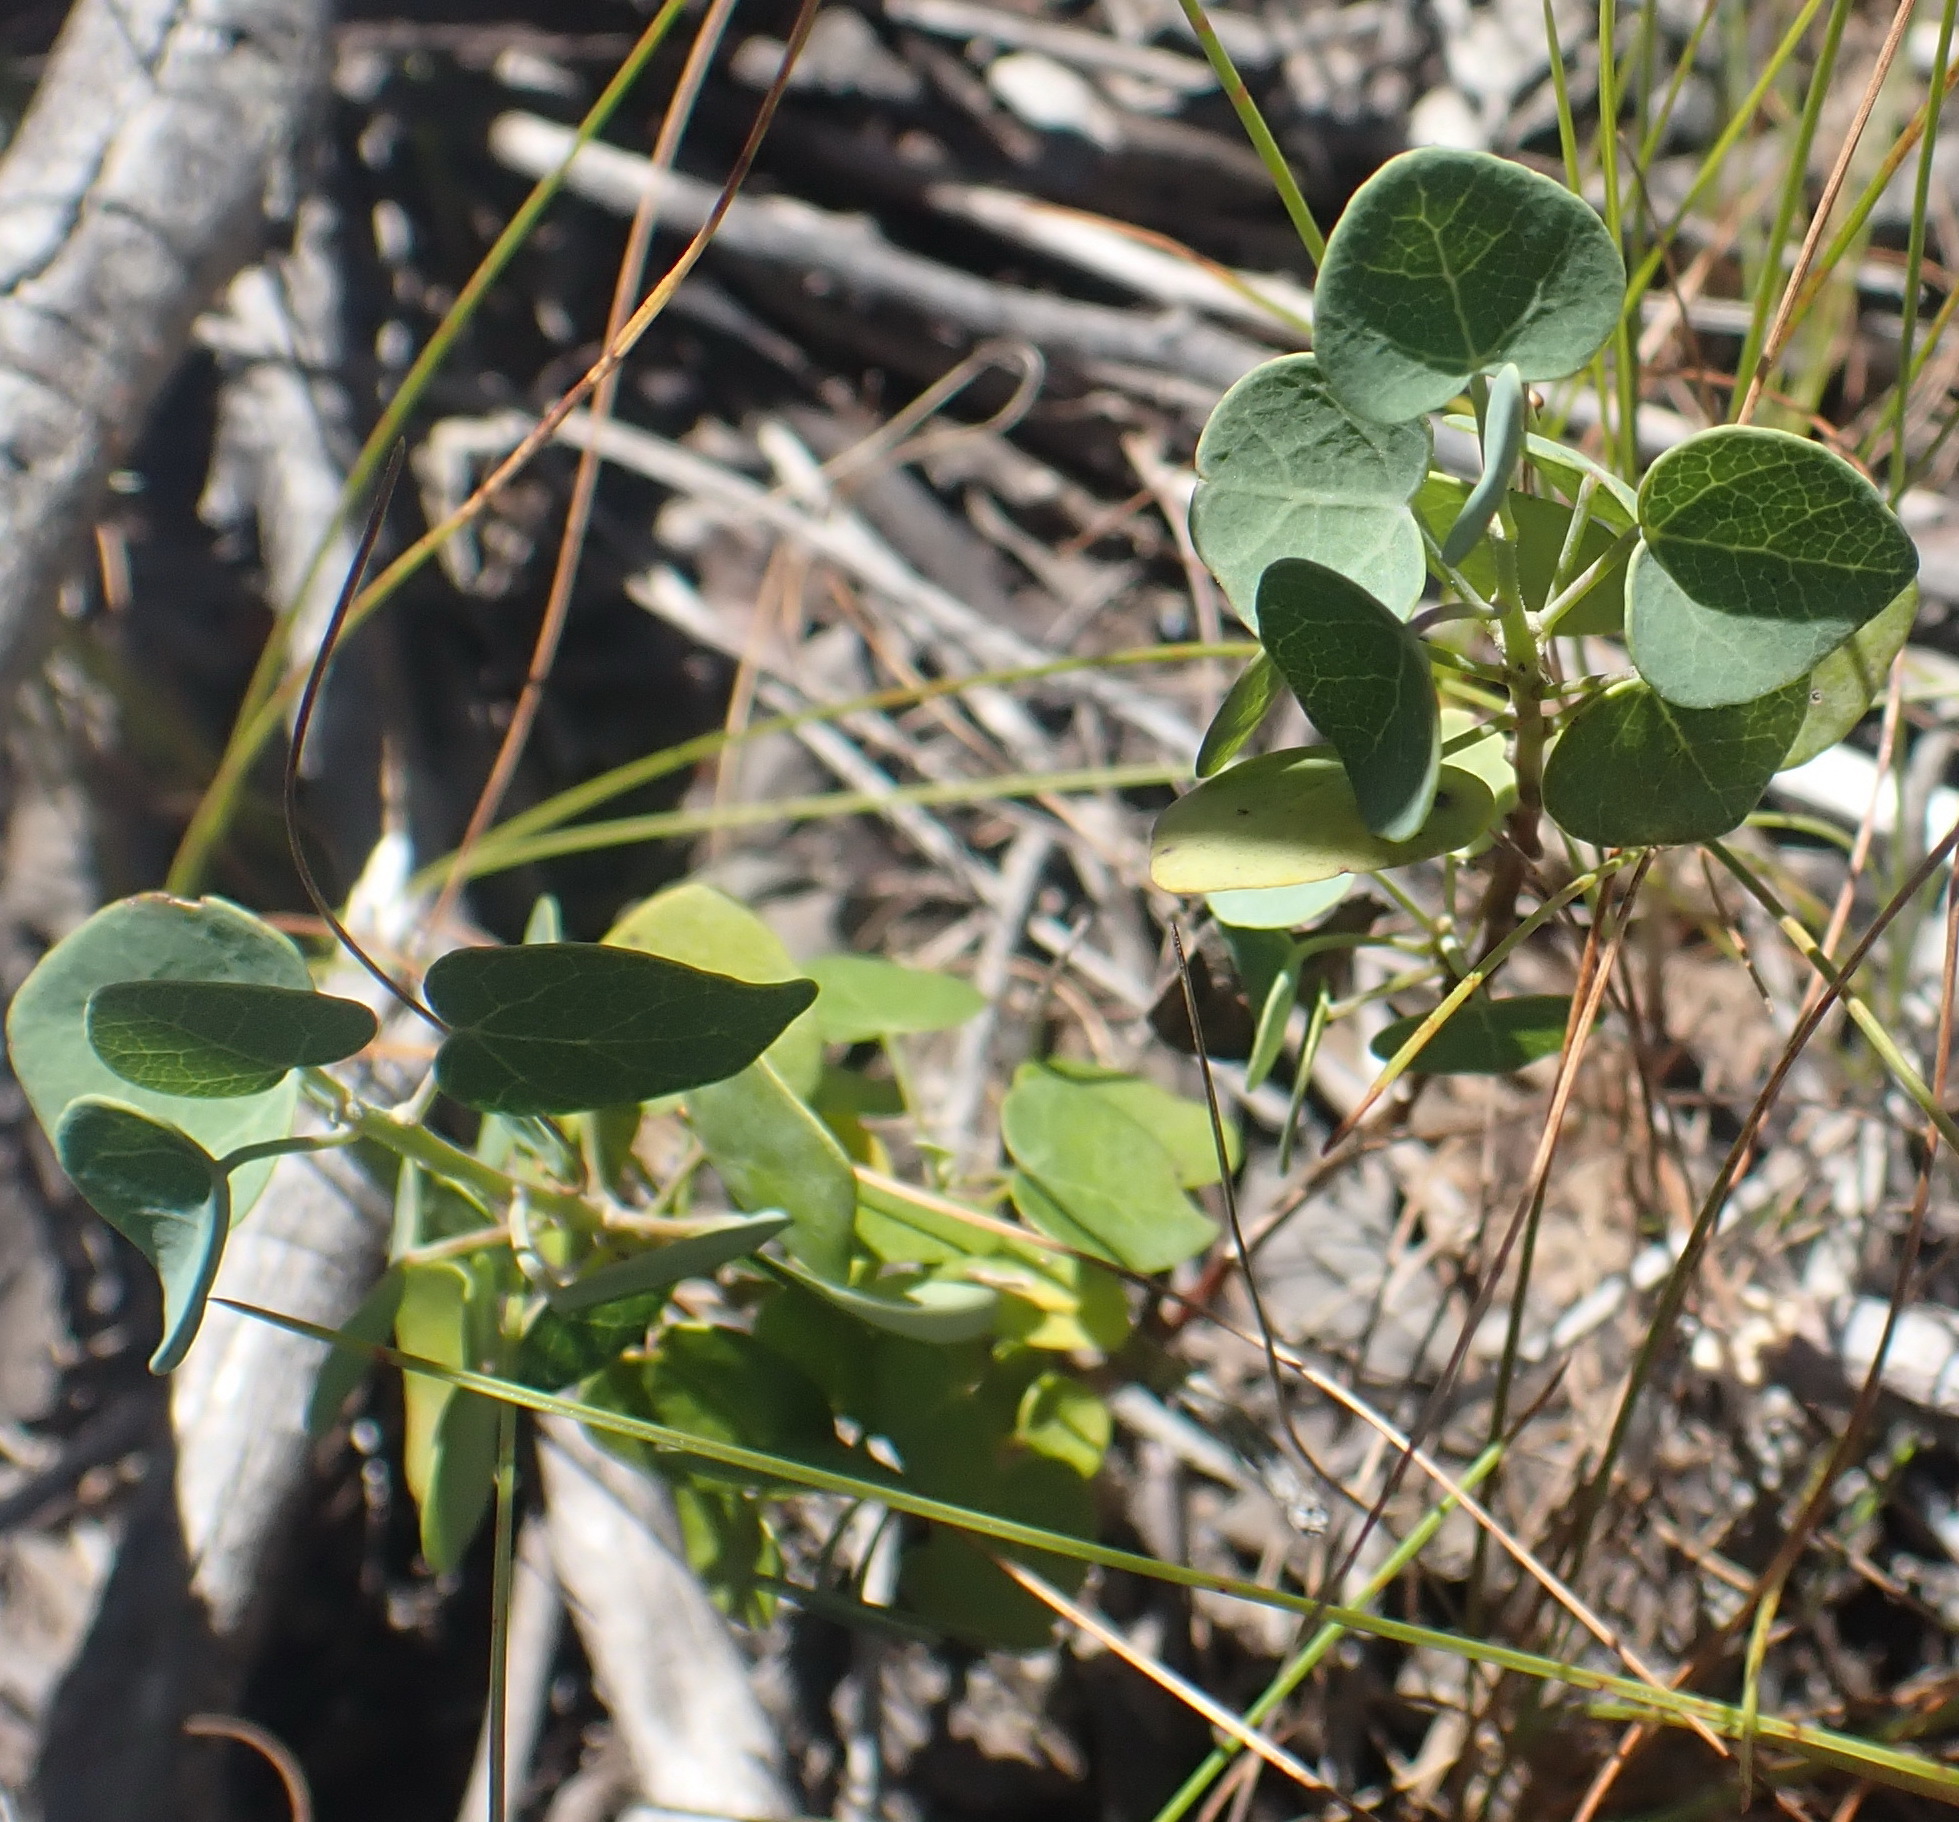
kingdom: Plantae
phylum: Tracheophyta
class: Magnoliopsida
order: Ranunculales
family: Menispermaceae
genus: Cissampelos
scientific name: Cissampelos capensis
